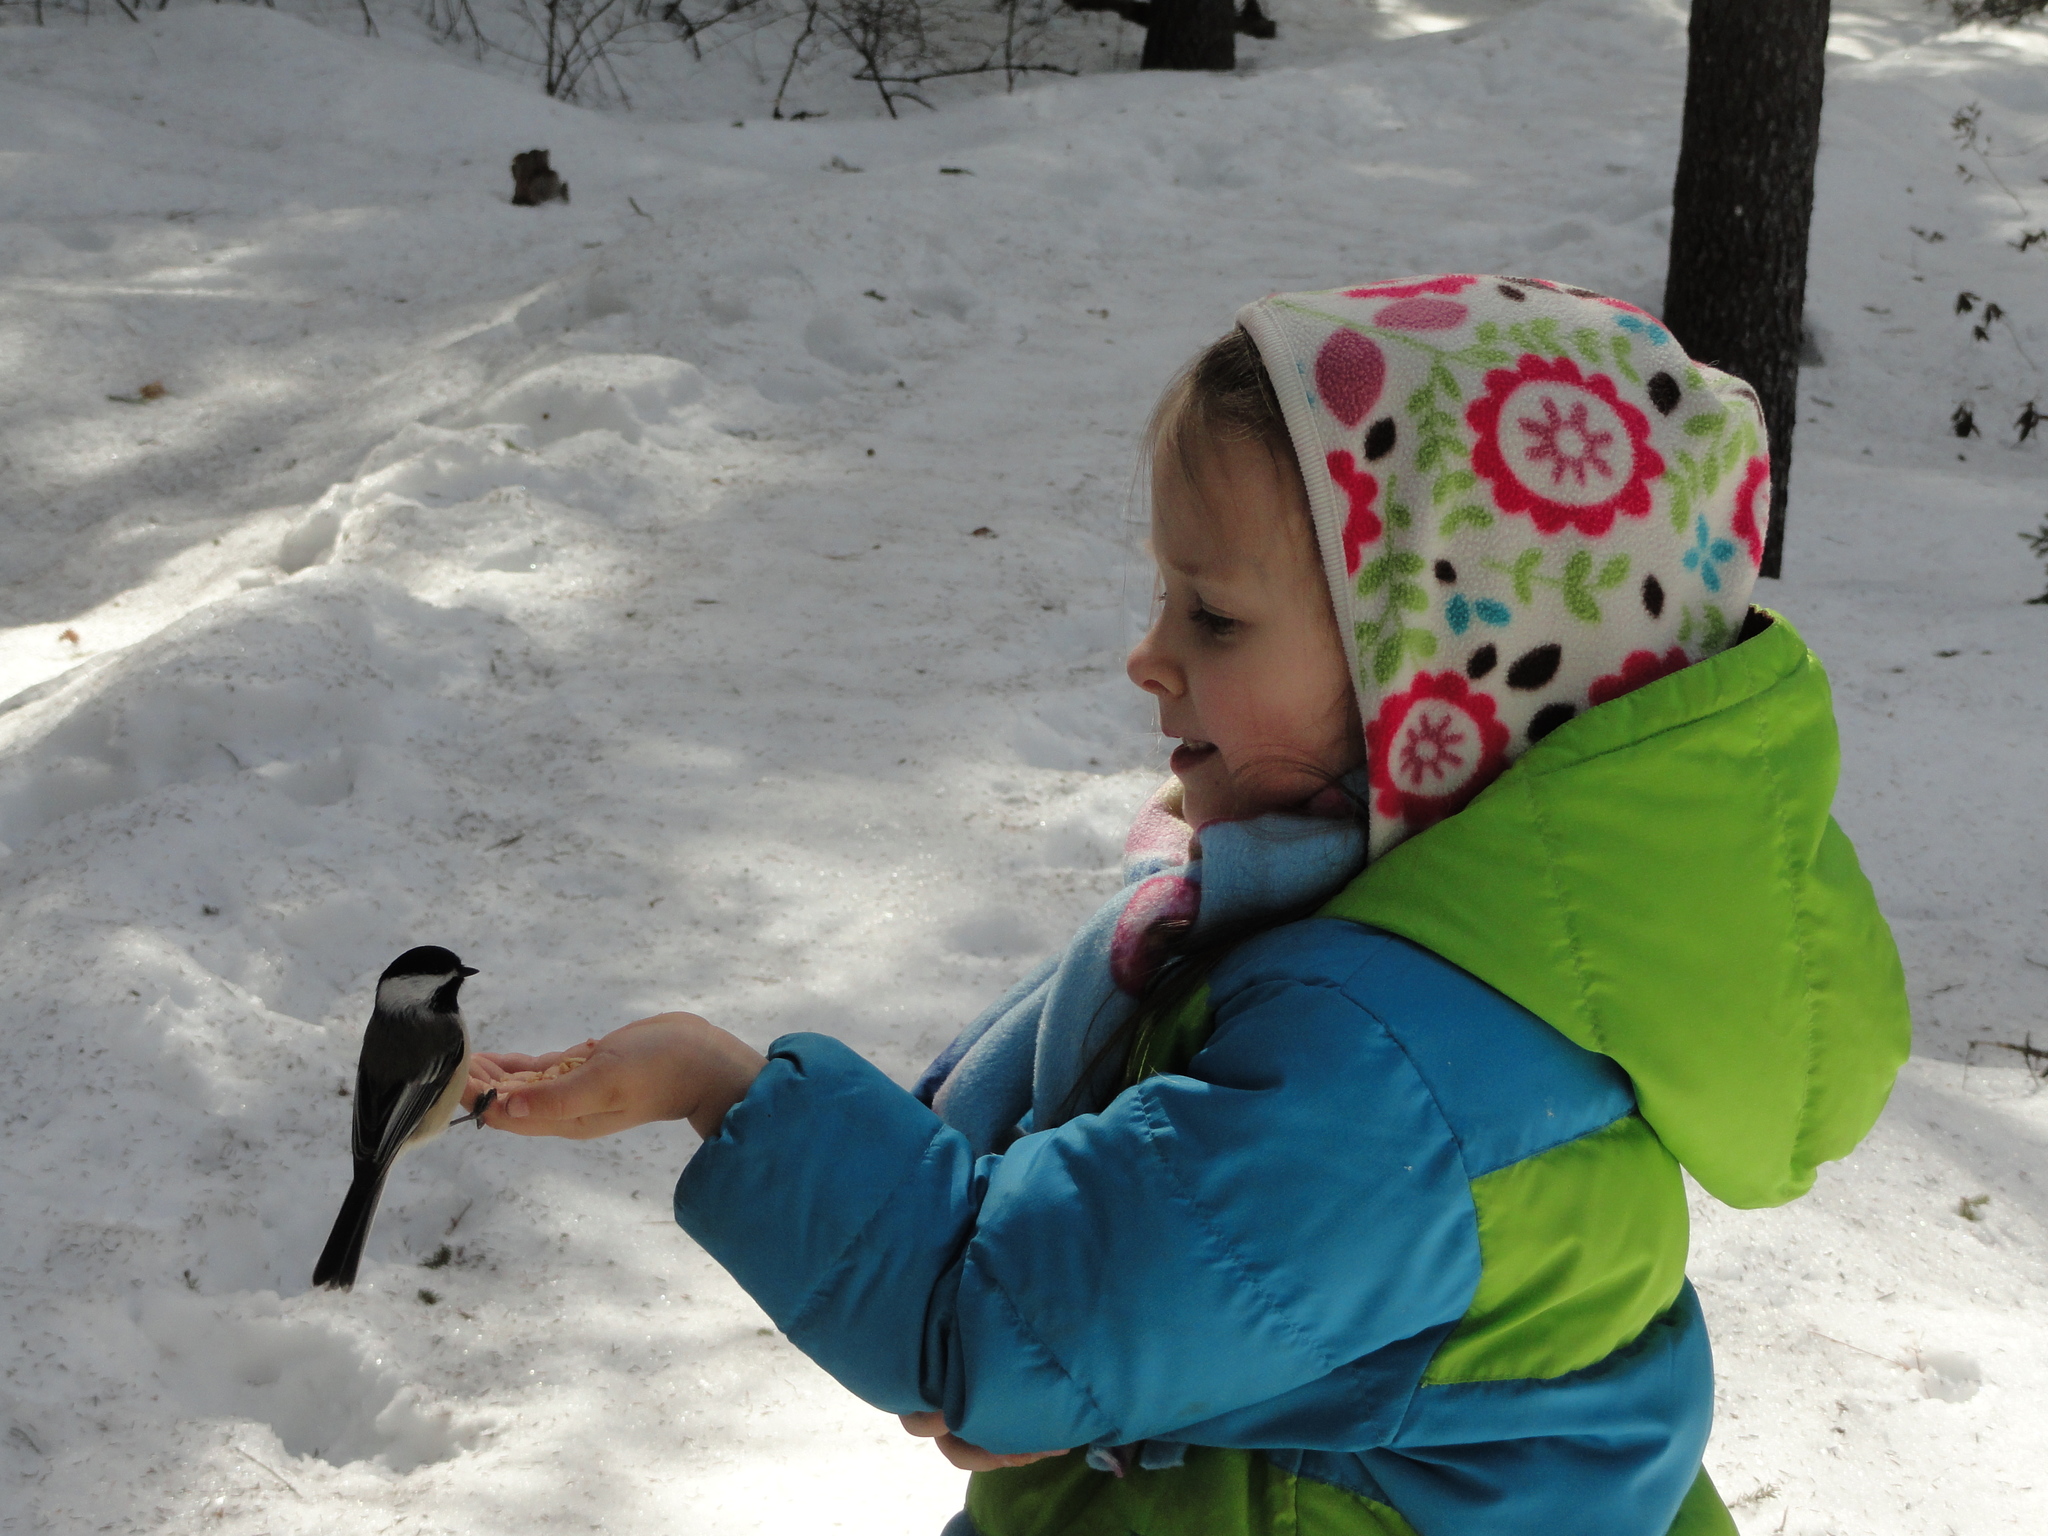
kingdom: Animalia
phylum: Chordata
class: Aves
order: Passeriformes
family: Paridae
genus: Poecile
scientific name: Poecile atricapillus
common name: Black-capped chickadee
